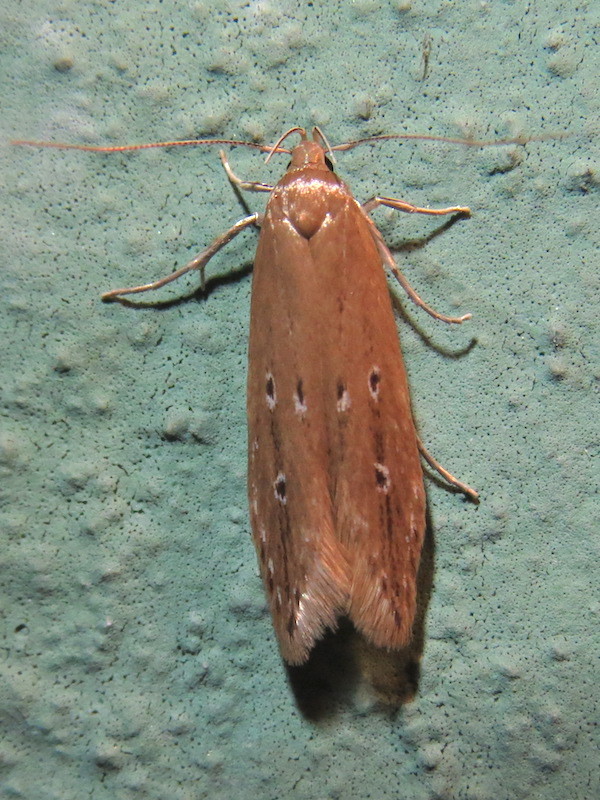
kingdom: Animalia
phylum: Arthropoda
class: Insecta
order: Lepidoptera
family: Cosmopterigidae
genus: Limnaecia
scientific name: Limnaecia phragmitella
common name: Bulrush cosmet
